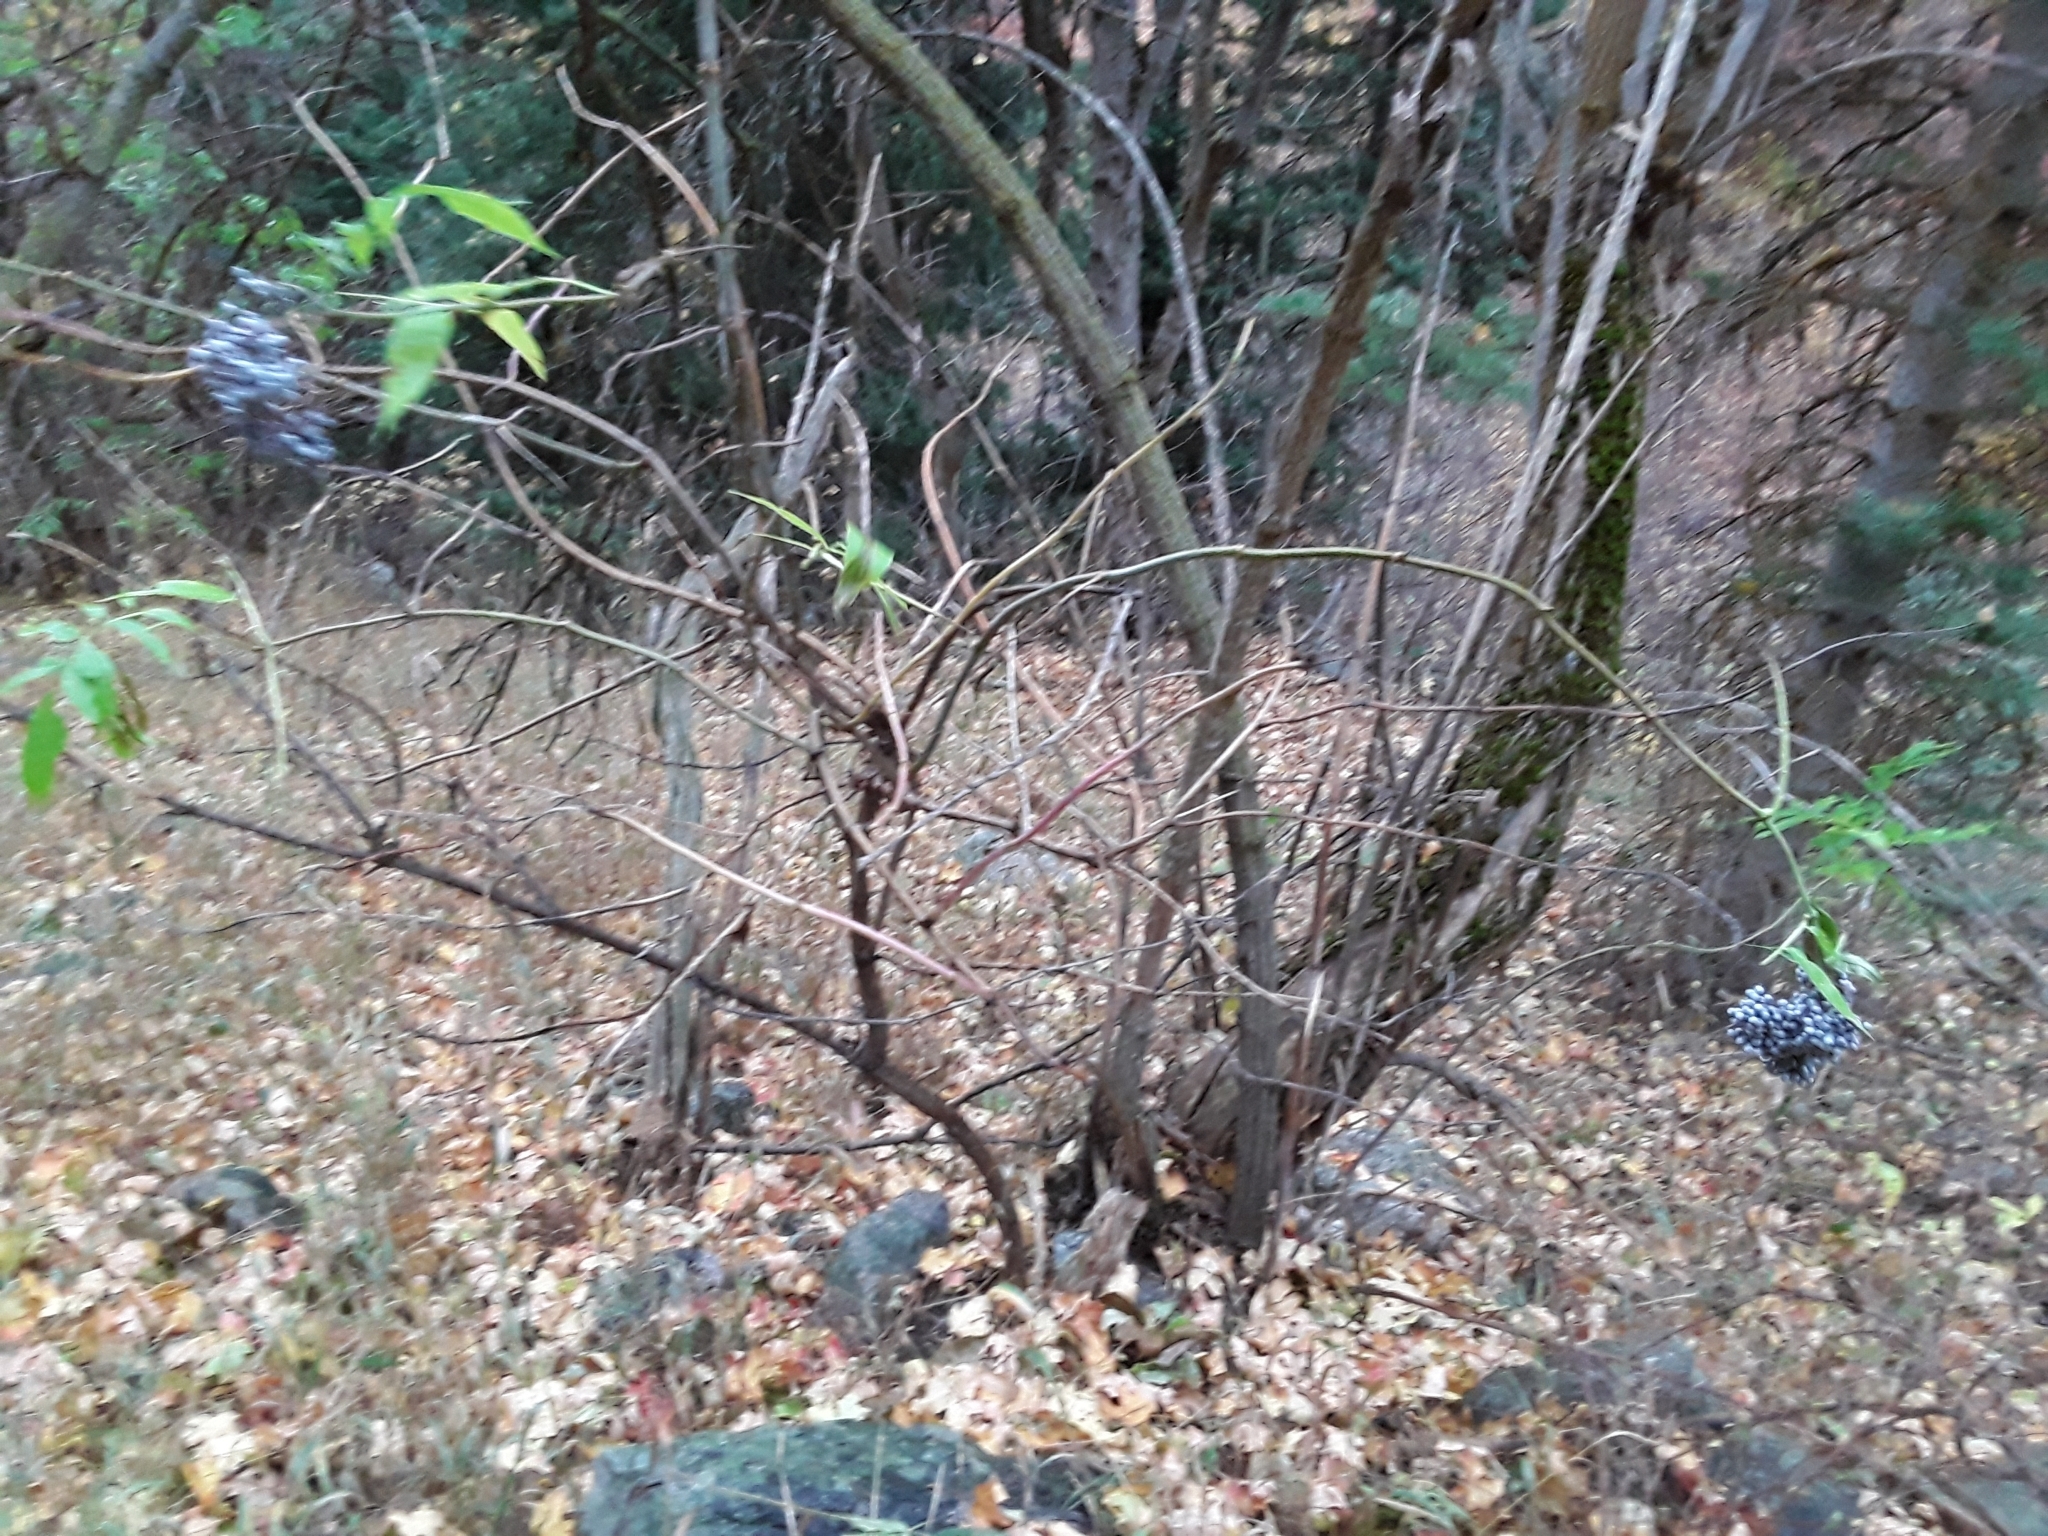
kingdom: Plantae
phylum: Tracheophyta
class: Magnoliopsida
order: Dipsacales
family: Viburnaceae
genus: Sambucus
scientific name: Sambucus cerulea
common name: Blue elder
